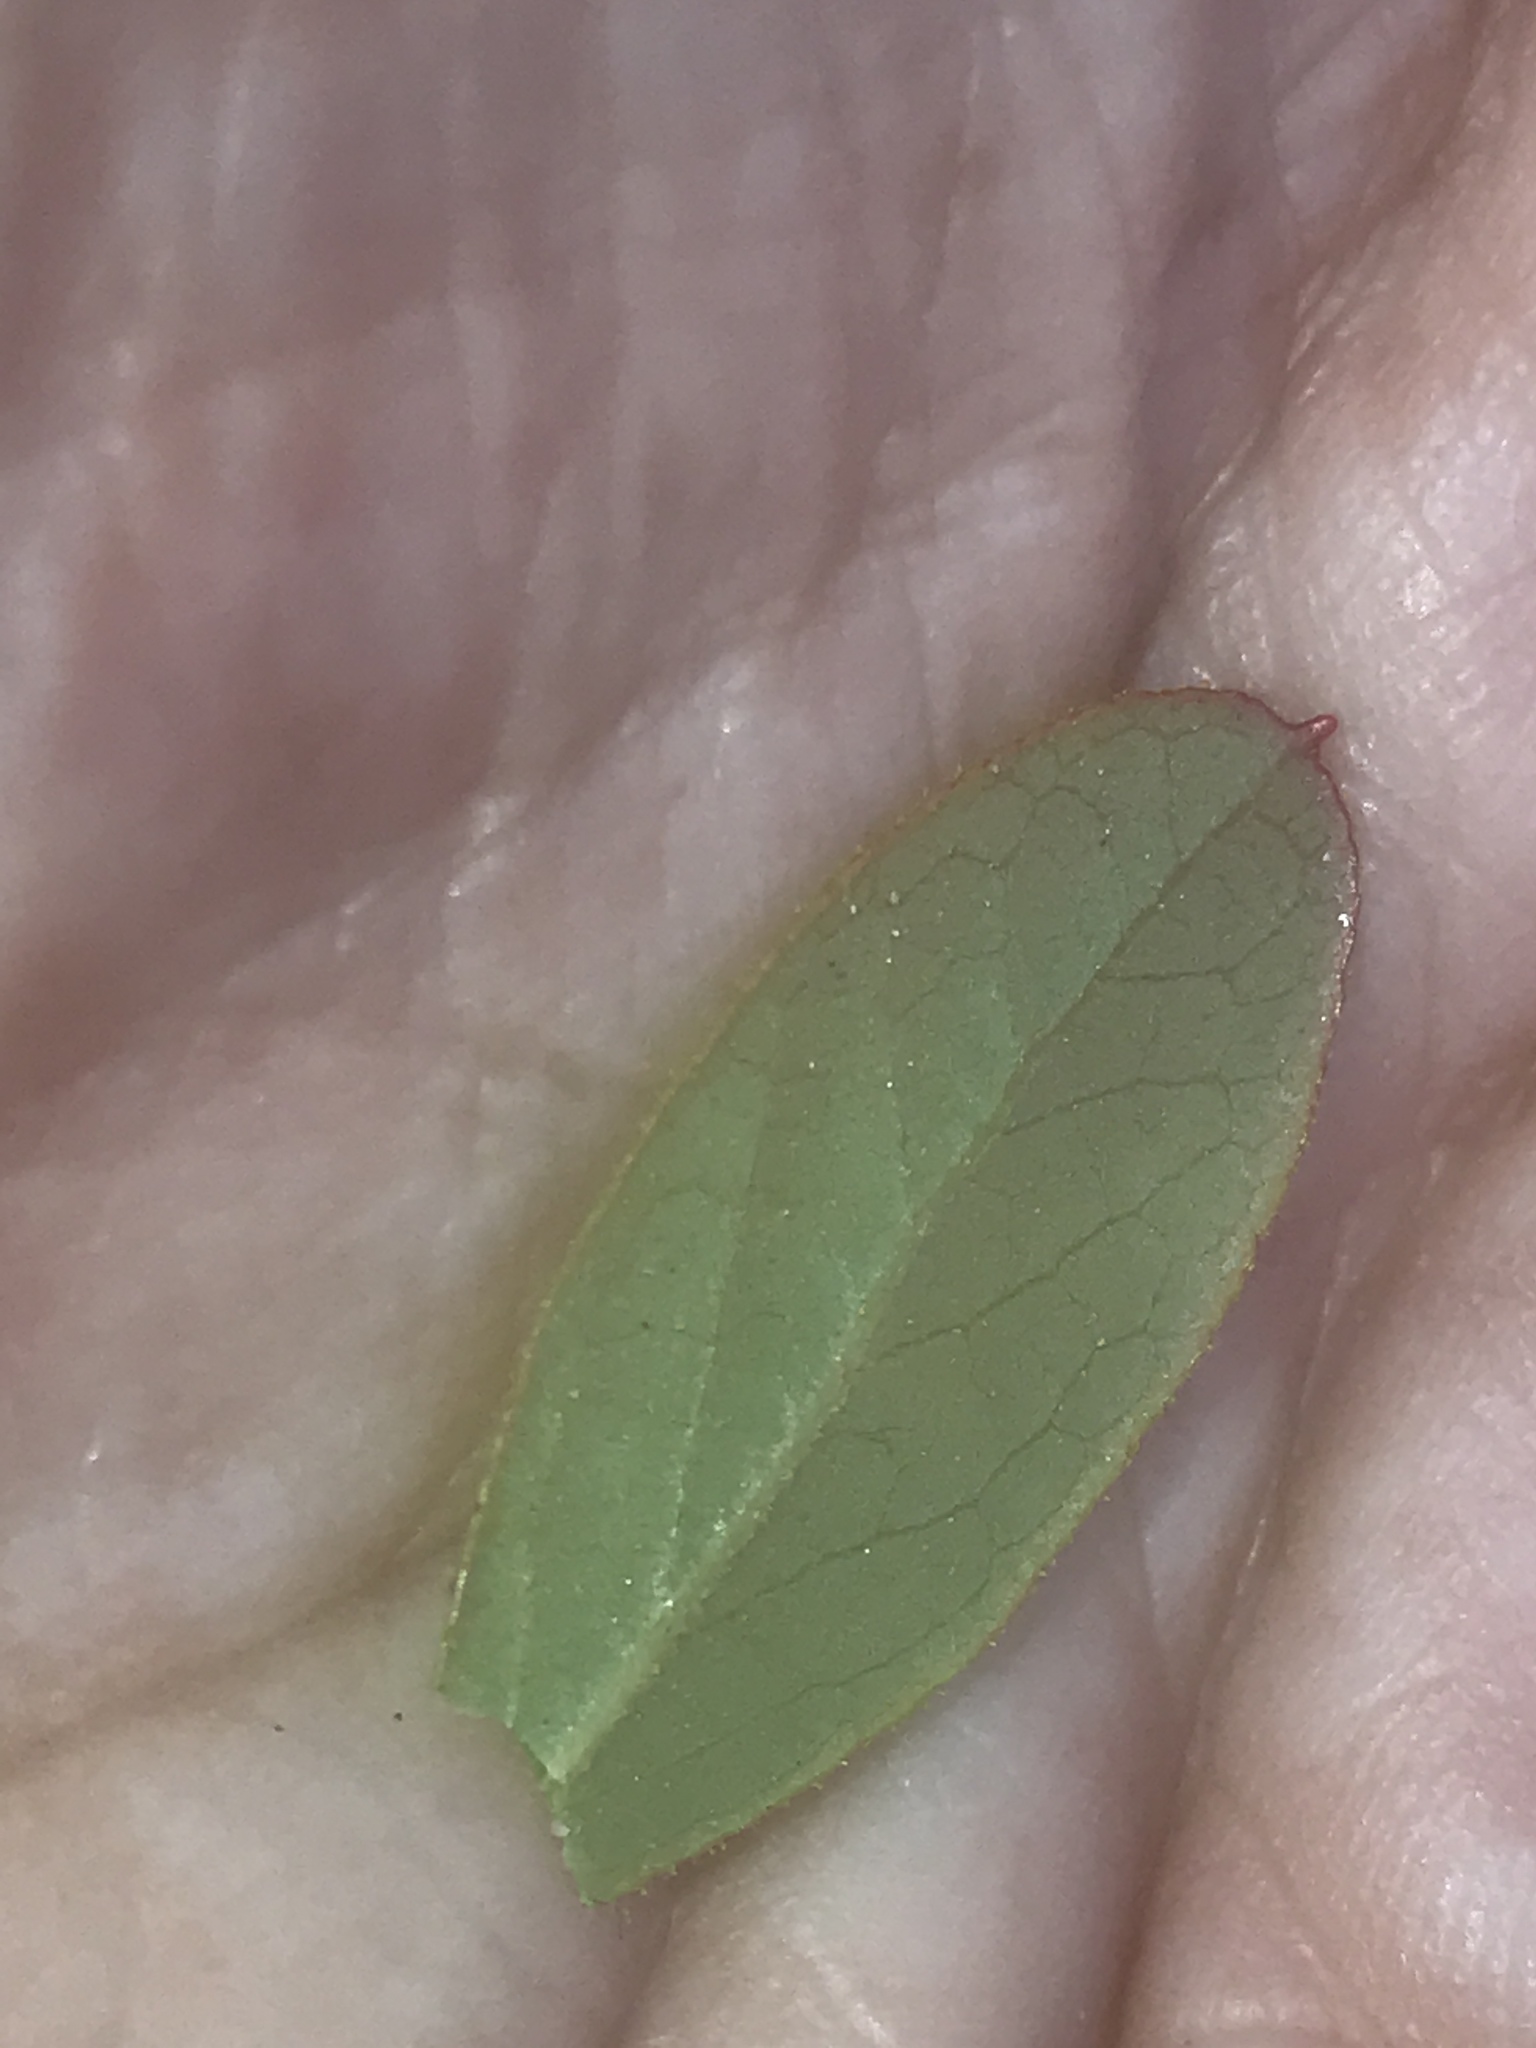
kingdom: Plantae
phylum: Tracheophyta
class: Magnoliopsida
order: Ericales
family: Ericaceae
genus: Gaylussacia
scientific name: Gaylussacia dumosa
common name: Dwarf huckleberry
